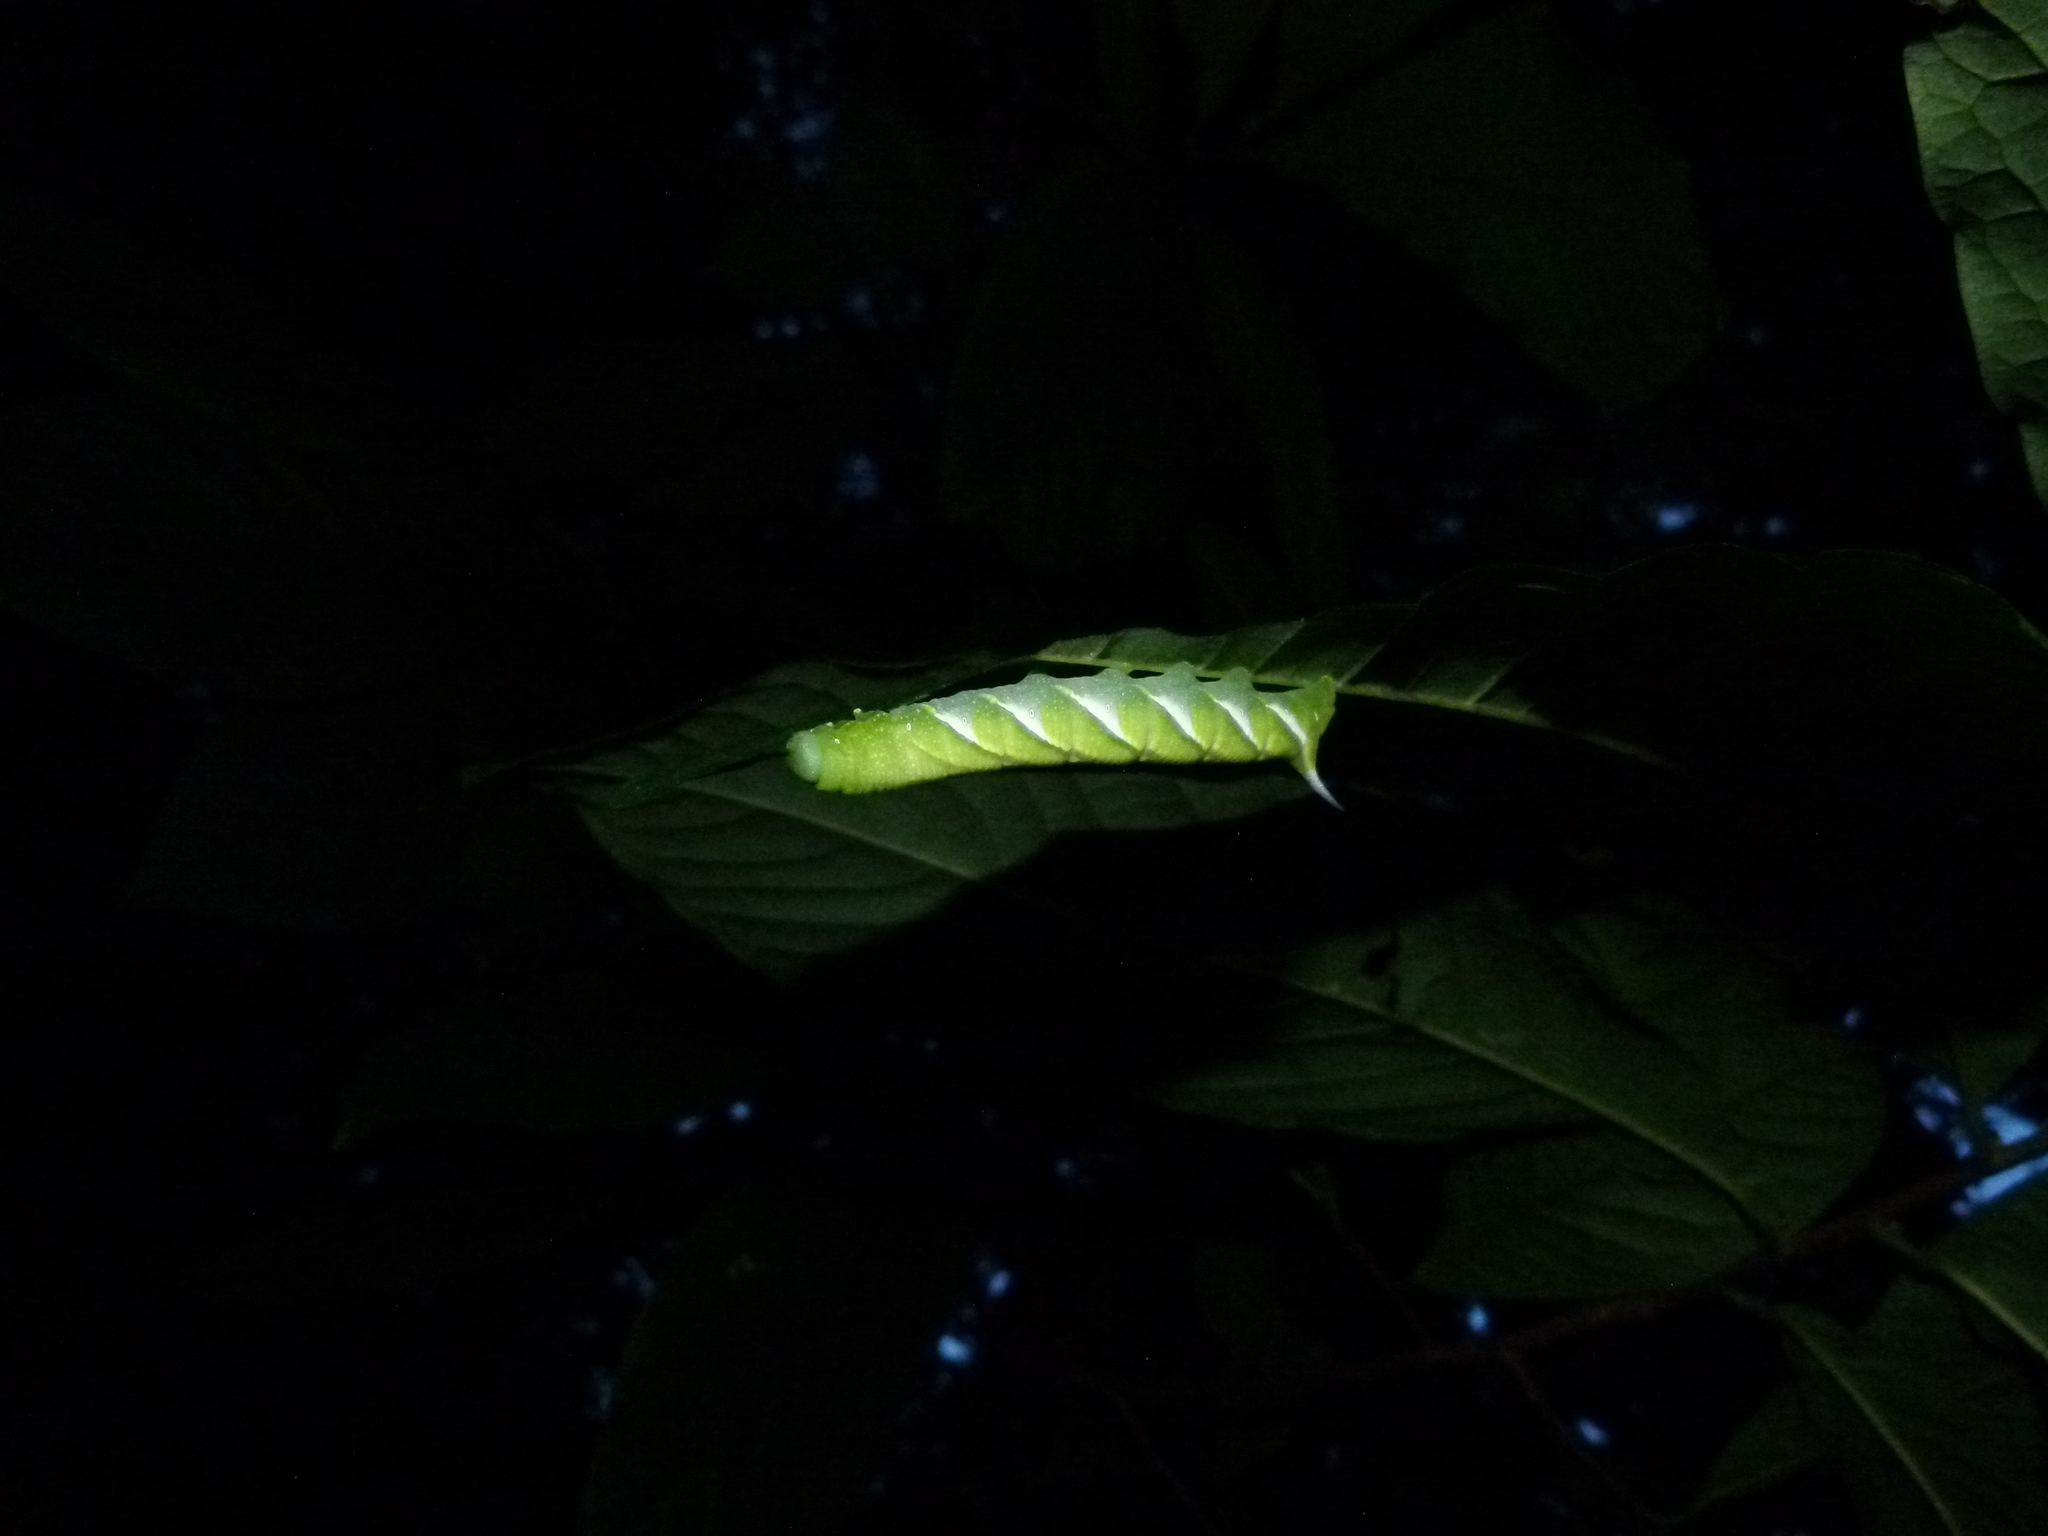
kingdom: Animalia
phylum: Arthropoda
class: Insecta
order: Lepidoptera
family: Sphingidae
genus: Dolba
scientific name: Dolba hyloeus
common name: Pawpaw sphinx
